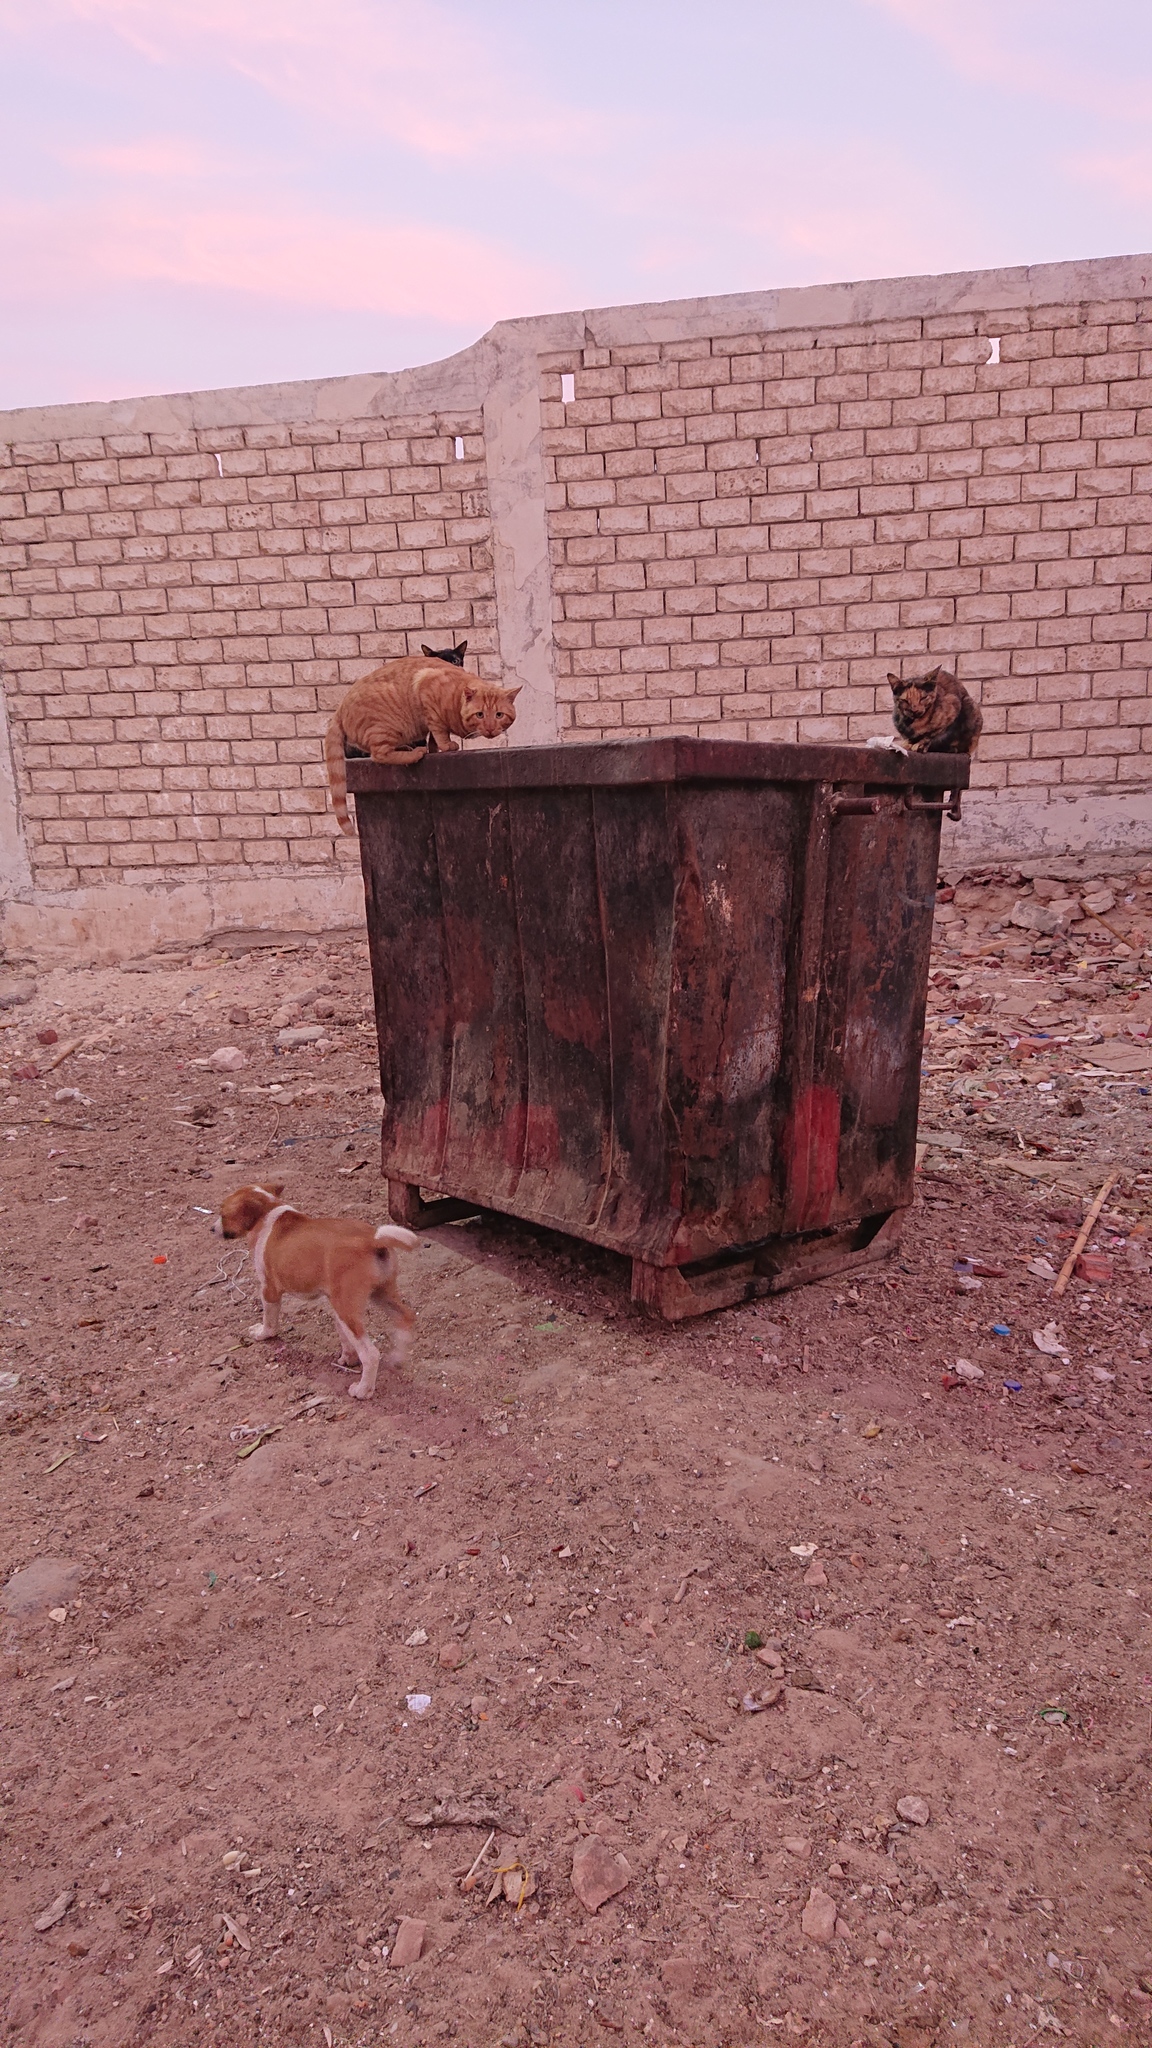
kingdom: Animalia
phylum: Chordata
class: Mammalia
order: Carnivora
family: Felidae
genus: Felis
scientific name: Felis catus
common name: Domestic cat
